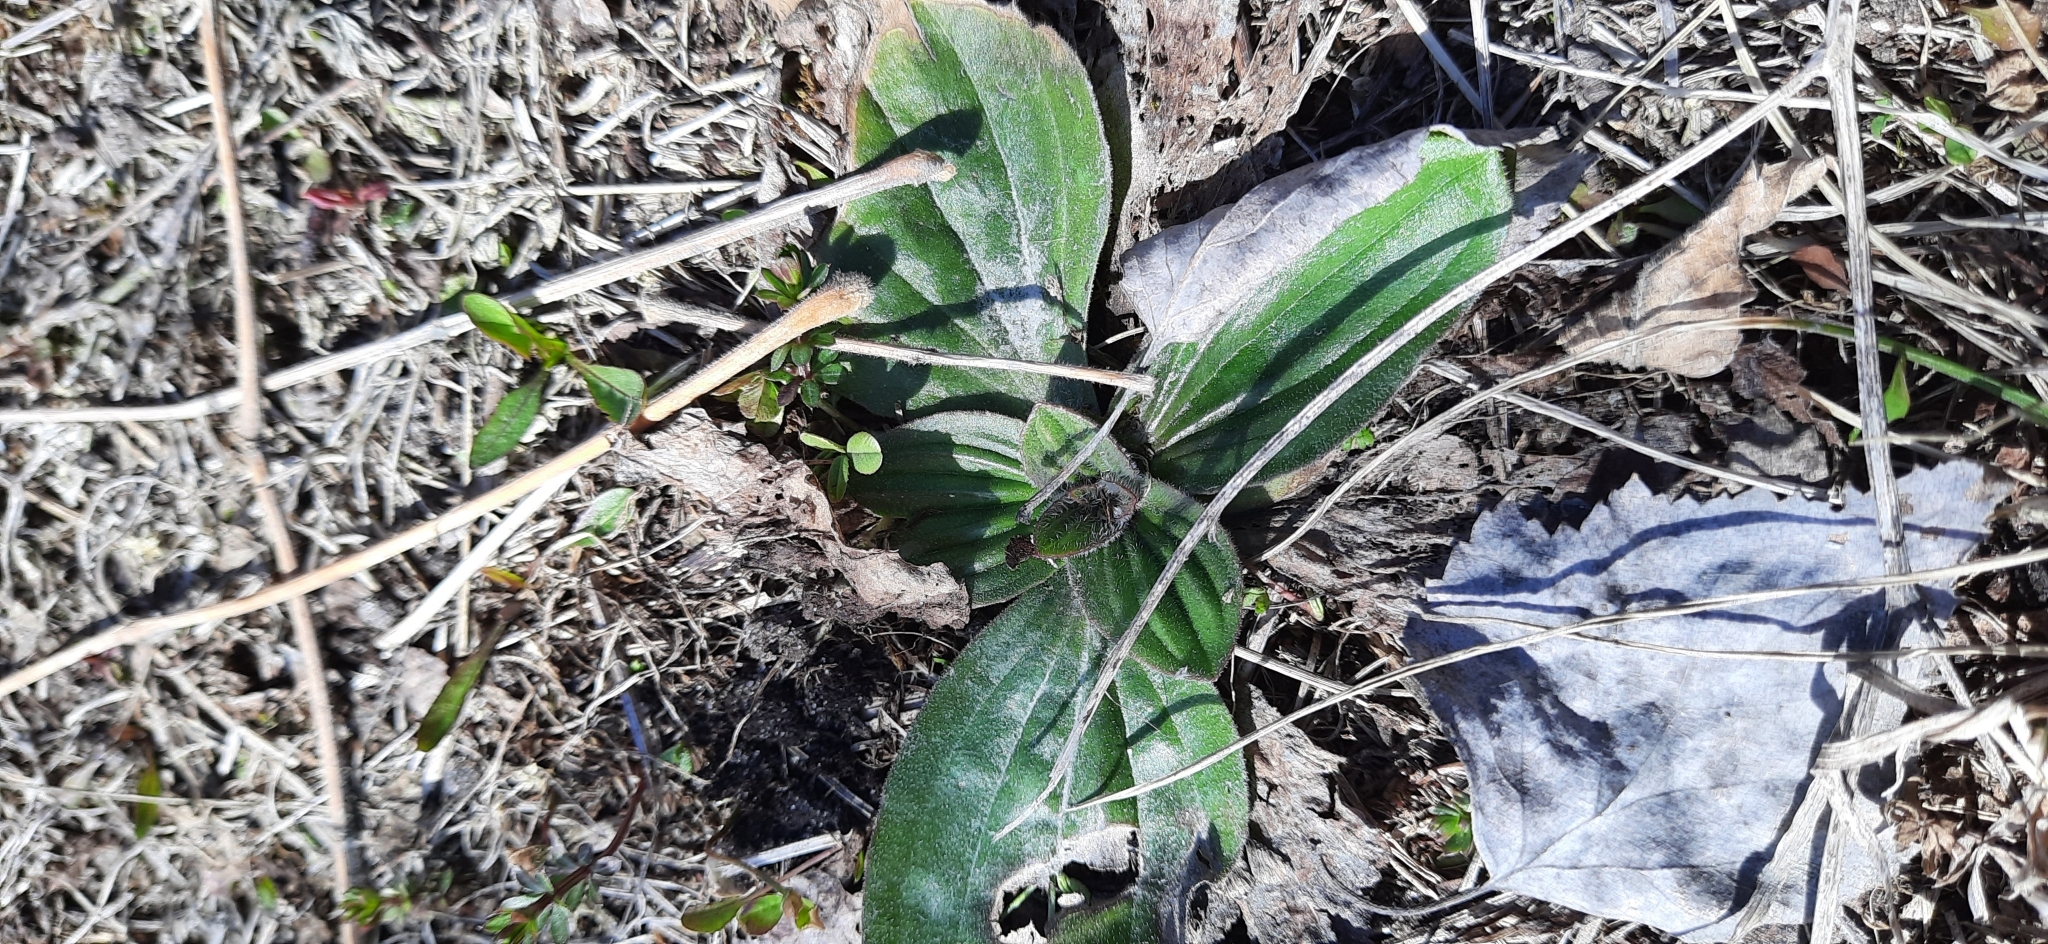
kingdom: Plantae
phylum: Tracheophyta
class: Magnoliopsida
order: Lamiales
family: Plantaginaceae
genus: Plantago
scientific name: Plantago media
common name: Hoary plantain
